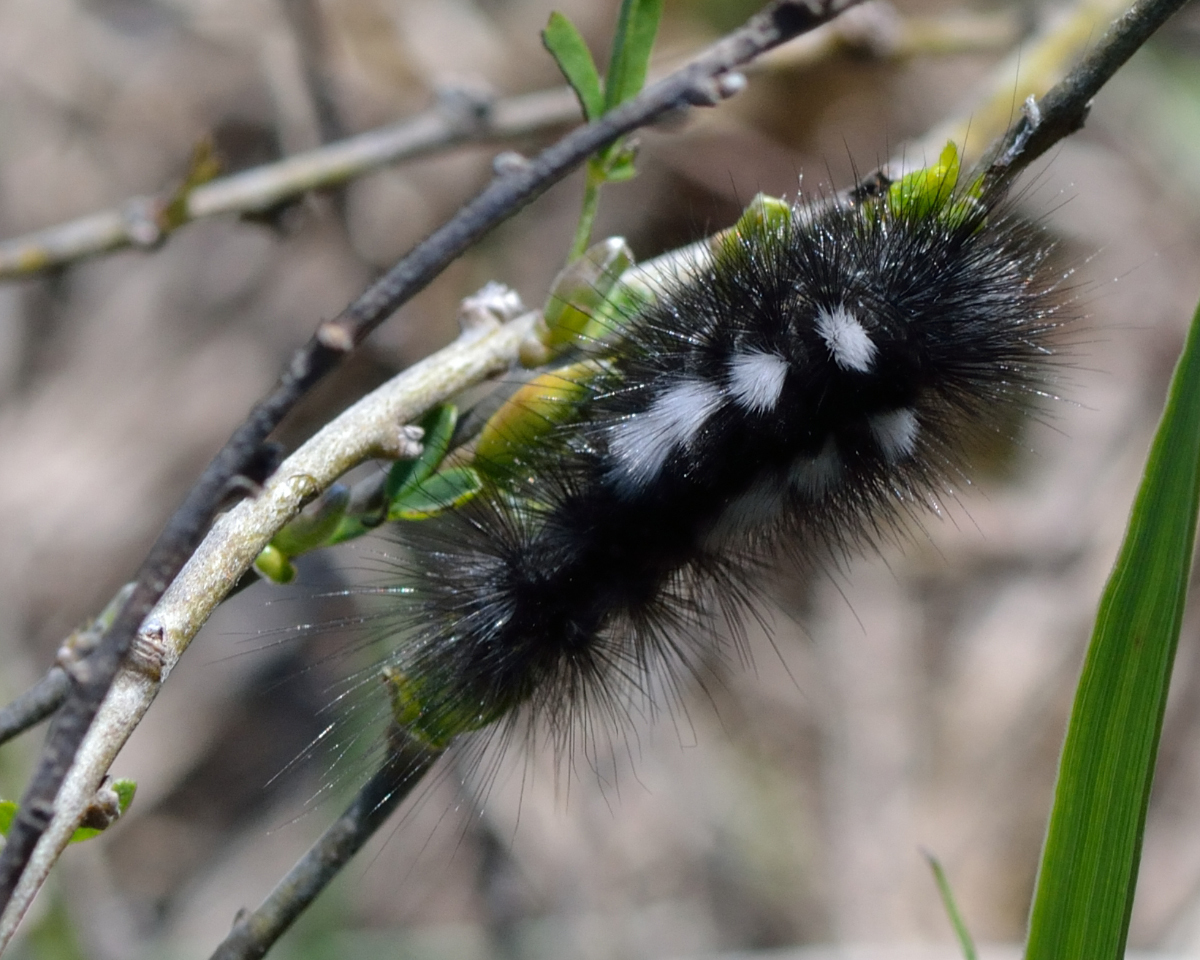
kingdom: Animalia
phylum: Arthropoda
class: Insecta
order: Lepidoptera
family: Erebidae
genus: Calliteara
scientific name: Calliteara Dicallomera fascelina
